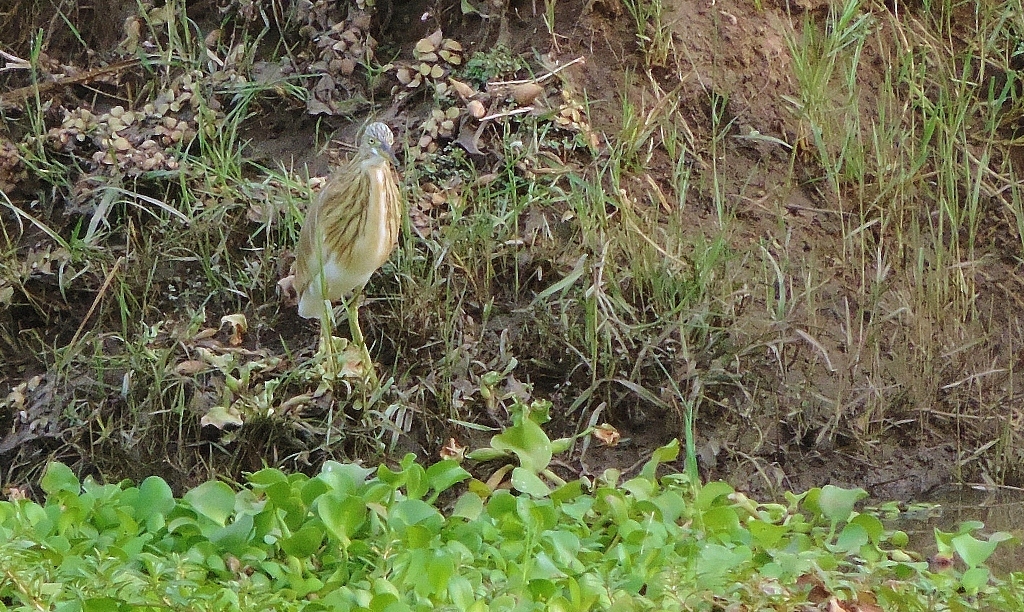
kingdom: Animalia
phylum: Chordata
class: Aves
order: Pelecaniformes
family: Ardeidae
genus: Ardeola
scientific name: Ardeola ralloides
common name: Squacco heron
